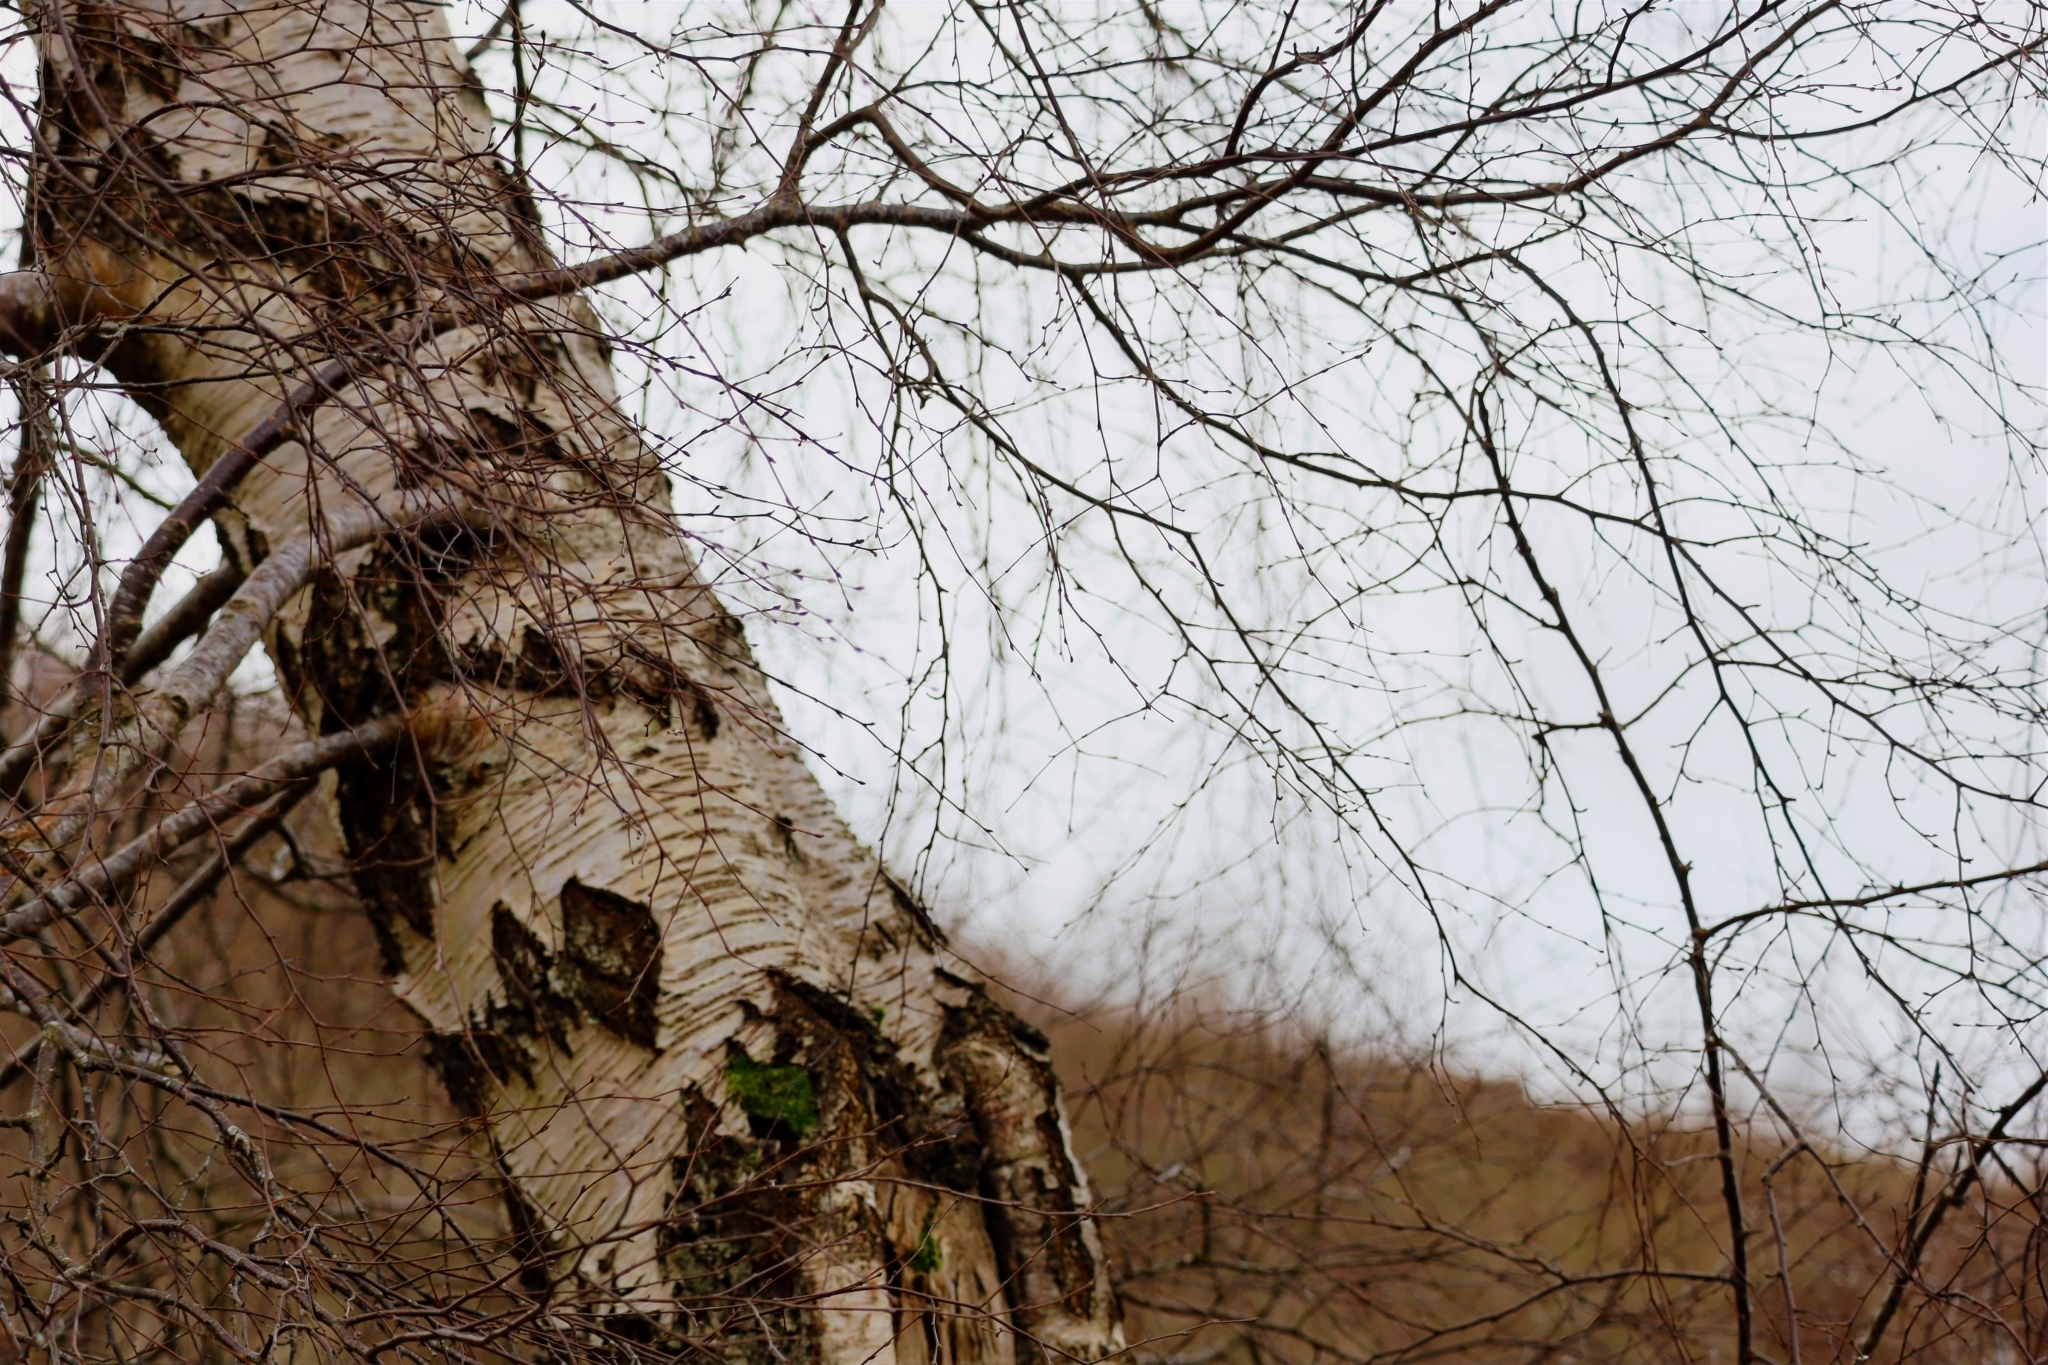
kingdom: Plantae
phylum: Tracheophyta
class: Magnoliopsida
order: Fagales
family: Betulaceae
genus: Betula
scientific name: Betula pendula
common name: Silver birch
